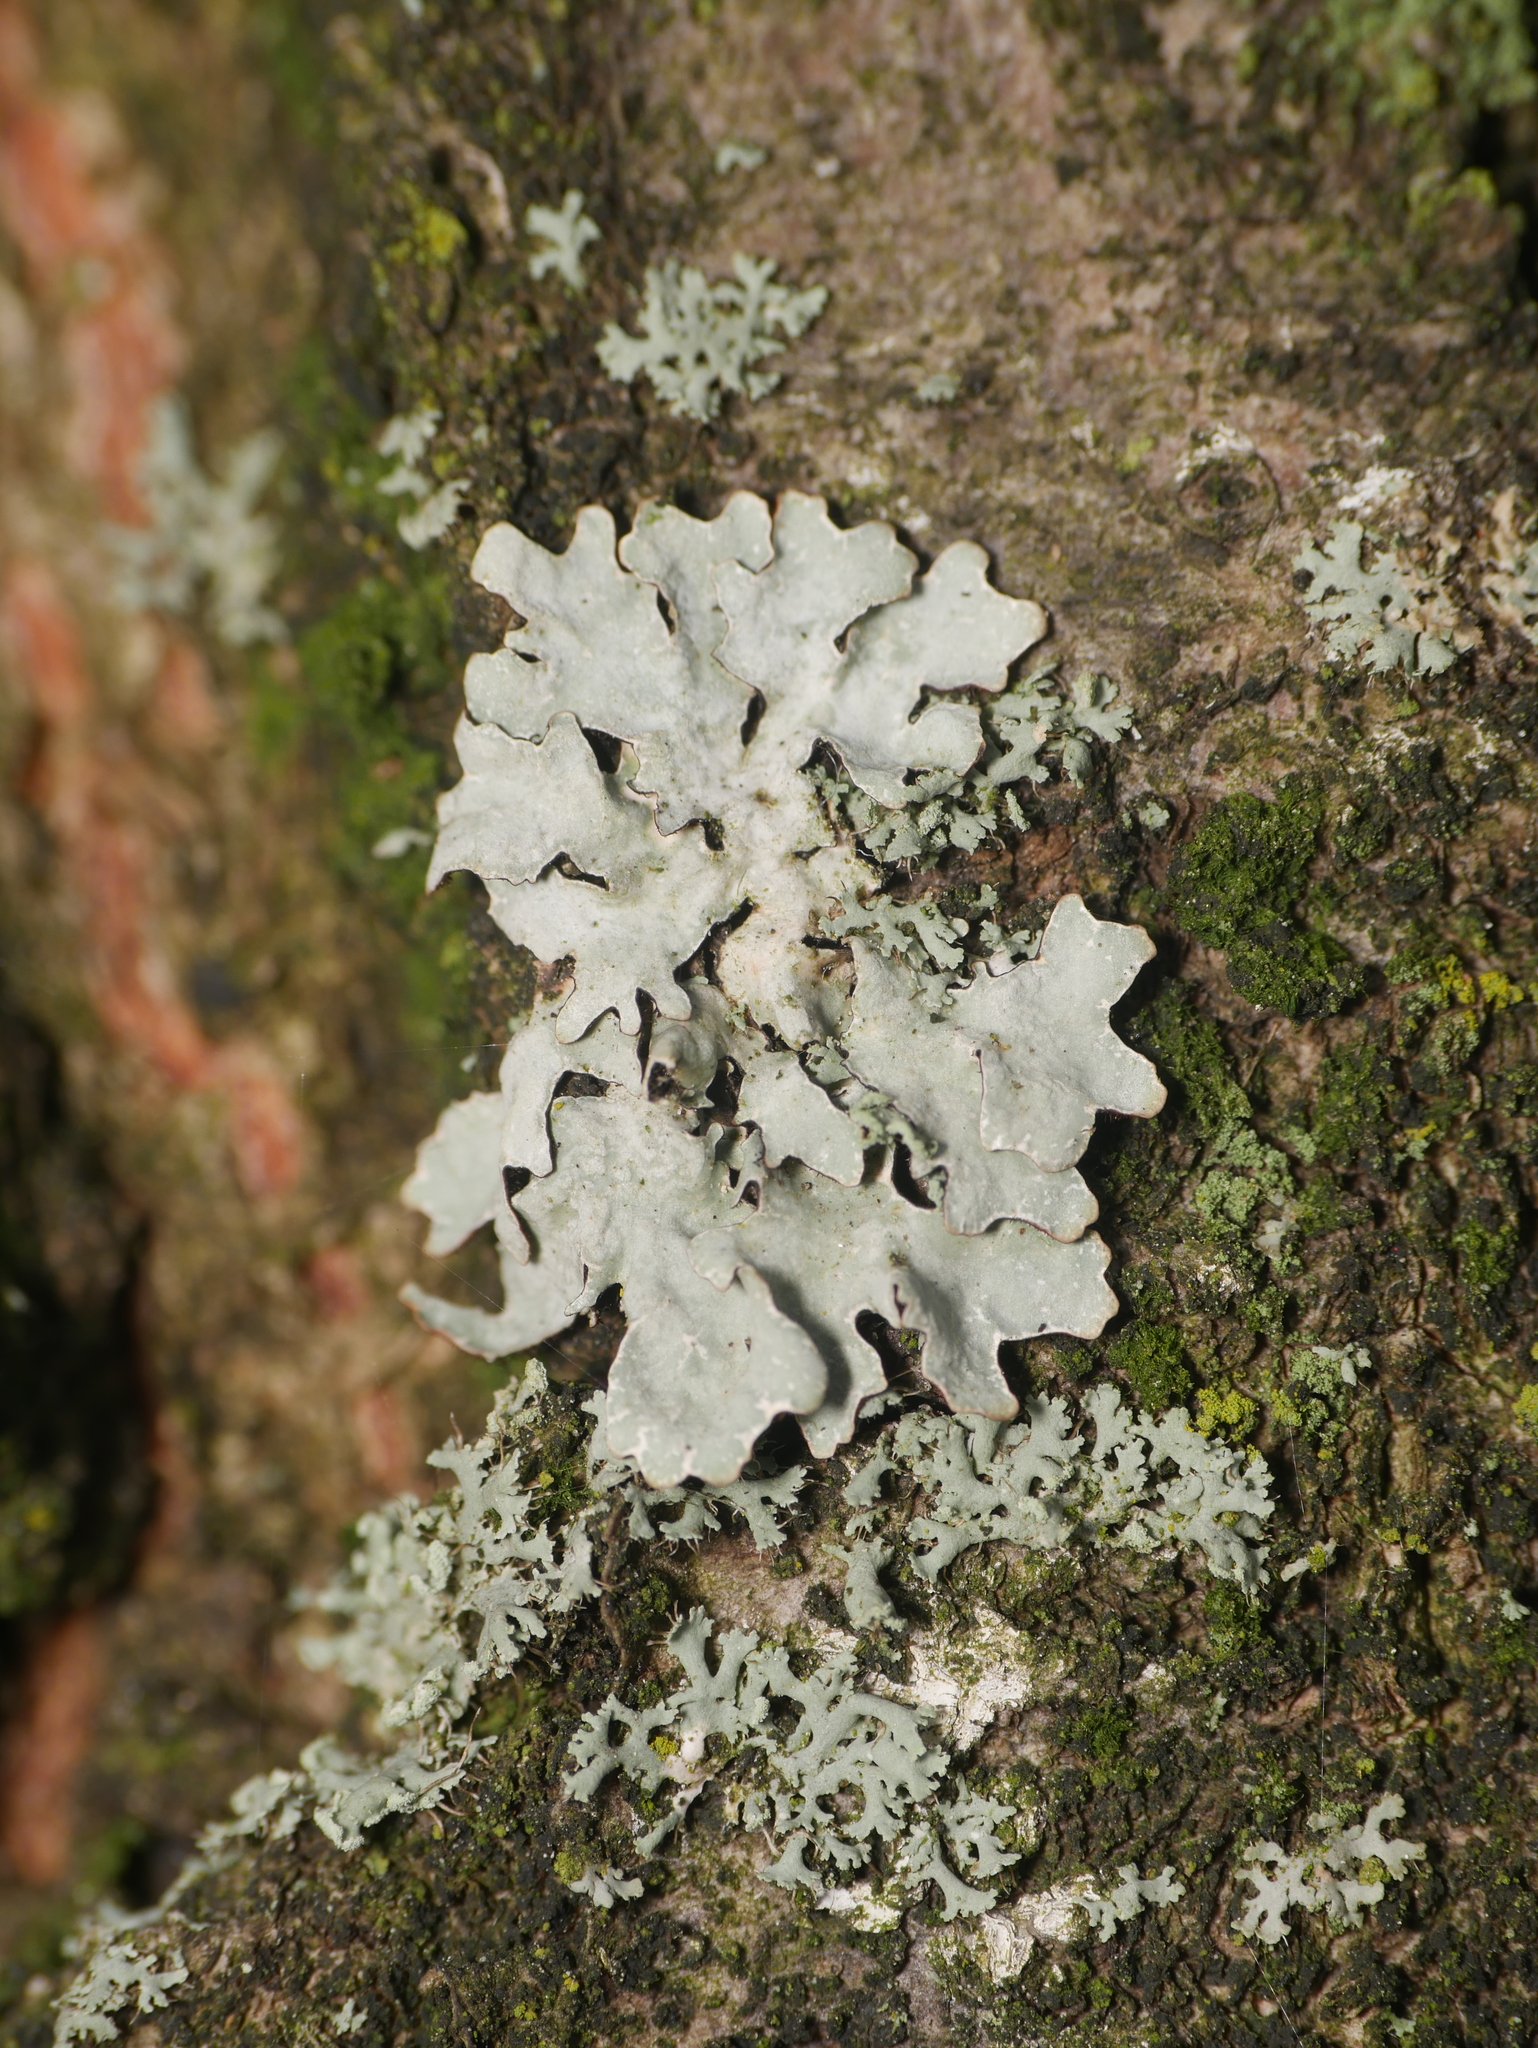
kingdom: Fungi
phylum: Ascomycota
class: Lecanoromycetes
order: Lecanorales
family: Parmeliaceae
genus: Parmelia
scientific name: Parmelia sulcata
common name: Netted shield lichen
